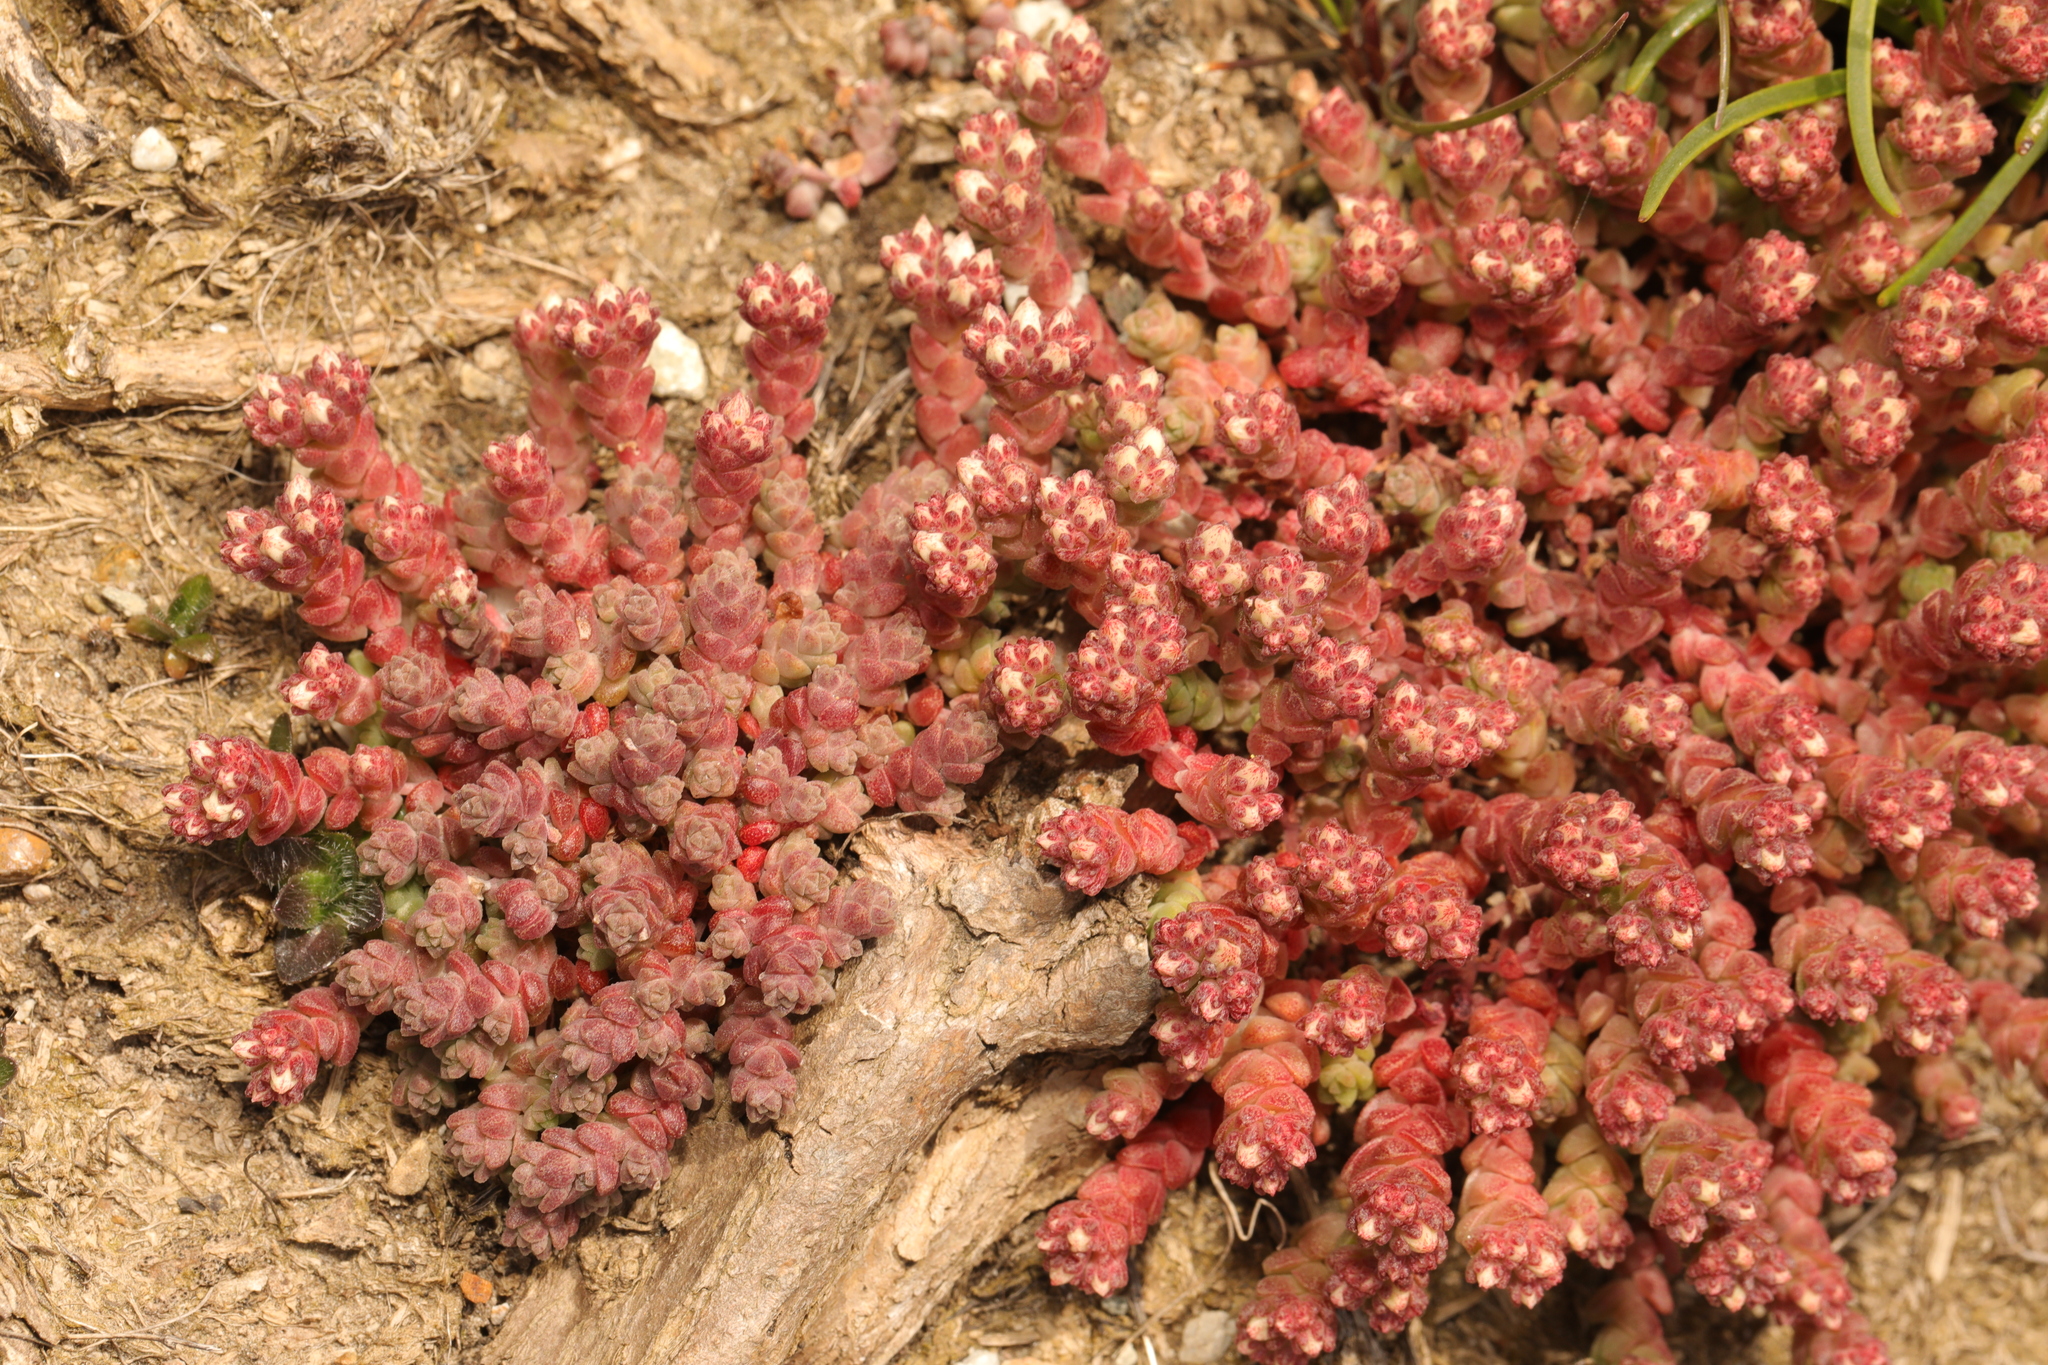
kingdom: Plantae
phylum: Tracheophyta
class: Magnoliopsida
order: Saxifragales
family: Crassulaceae
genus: Sedum
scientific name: Sedum anglicum
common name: English stonecrop
